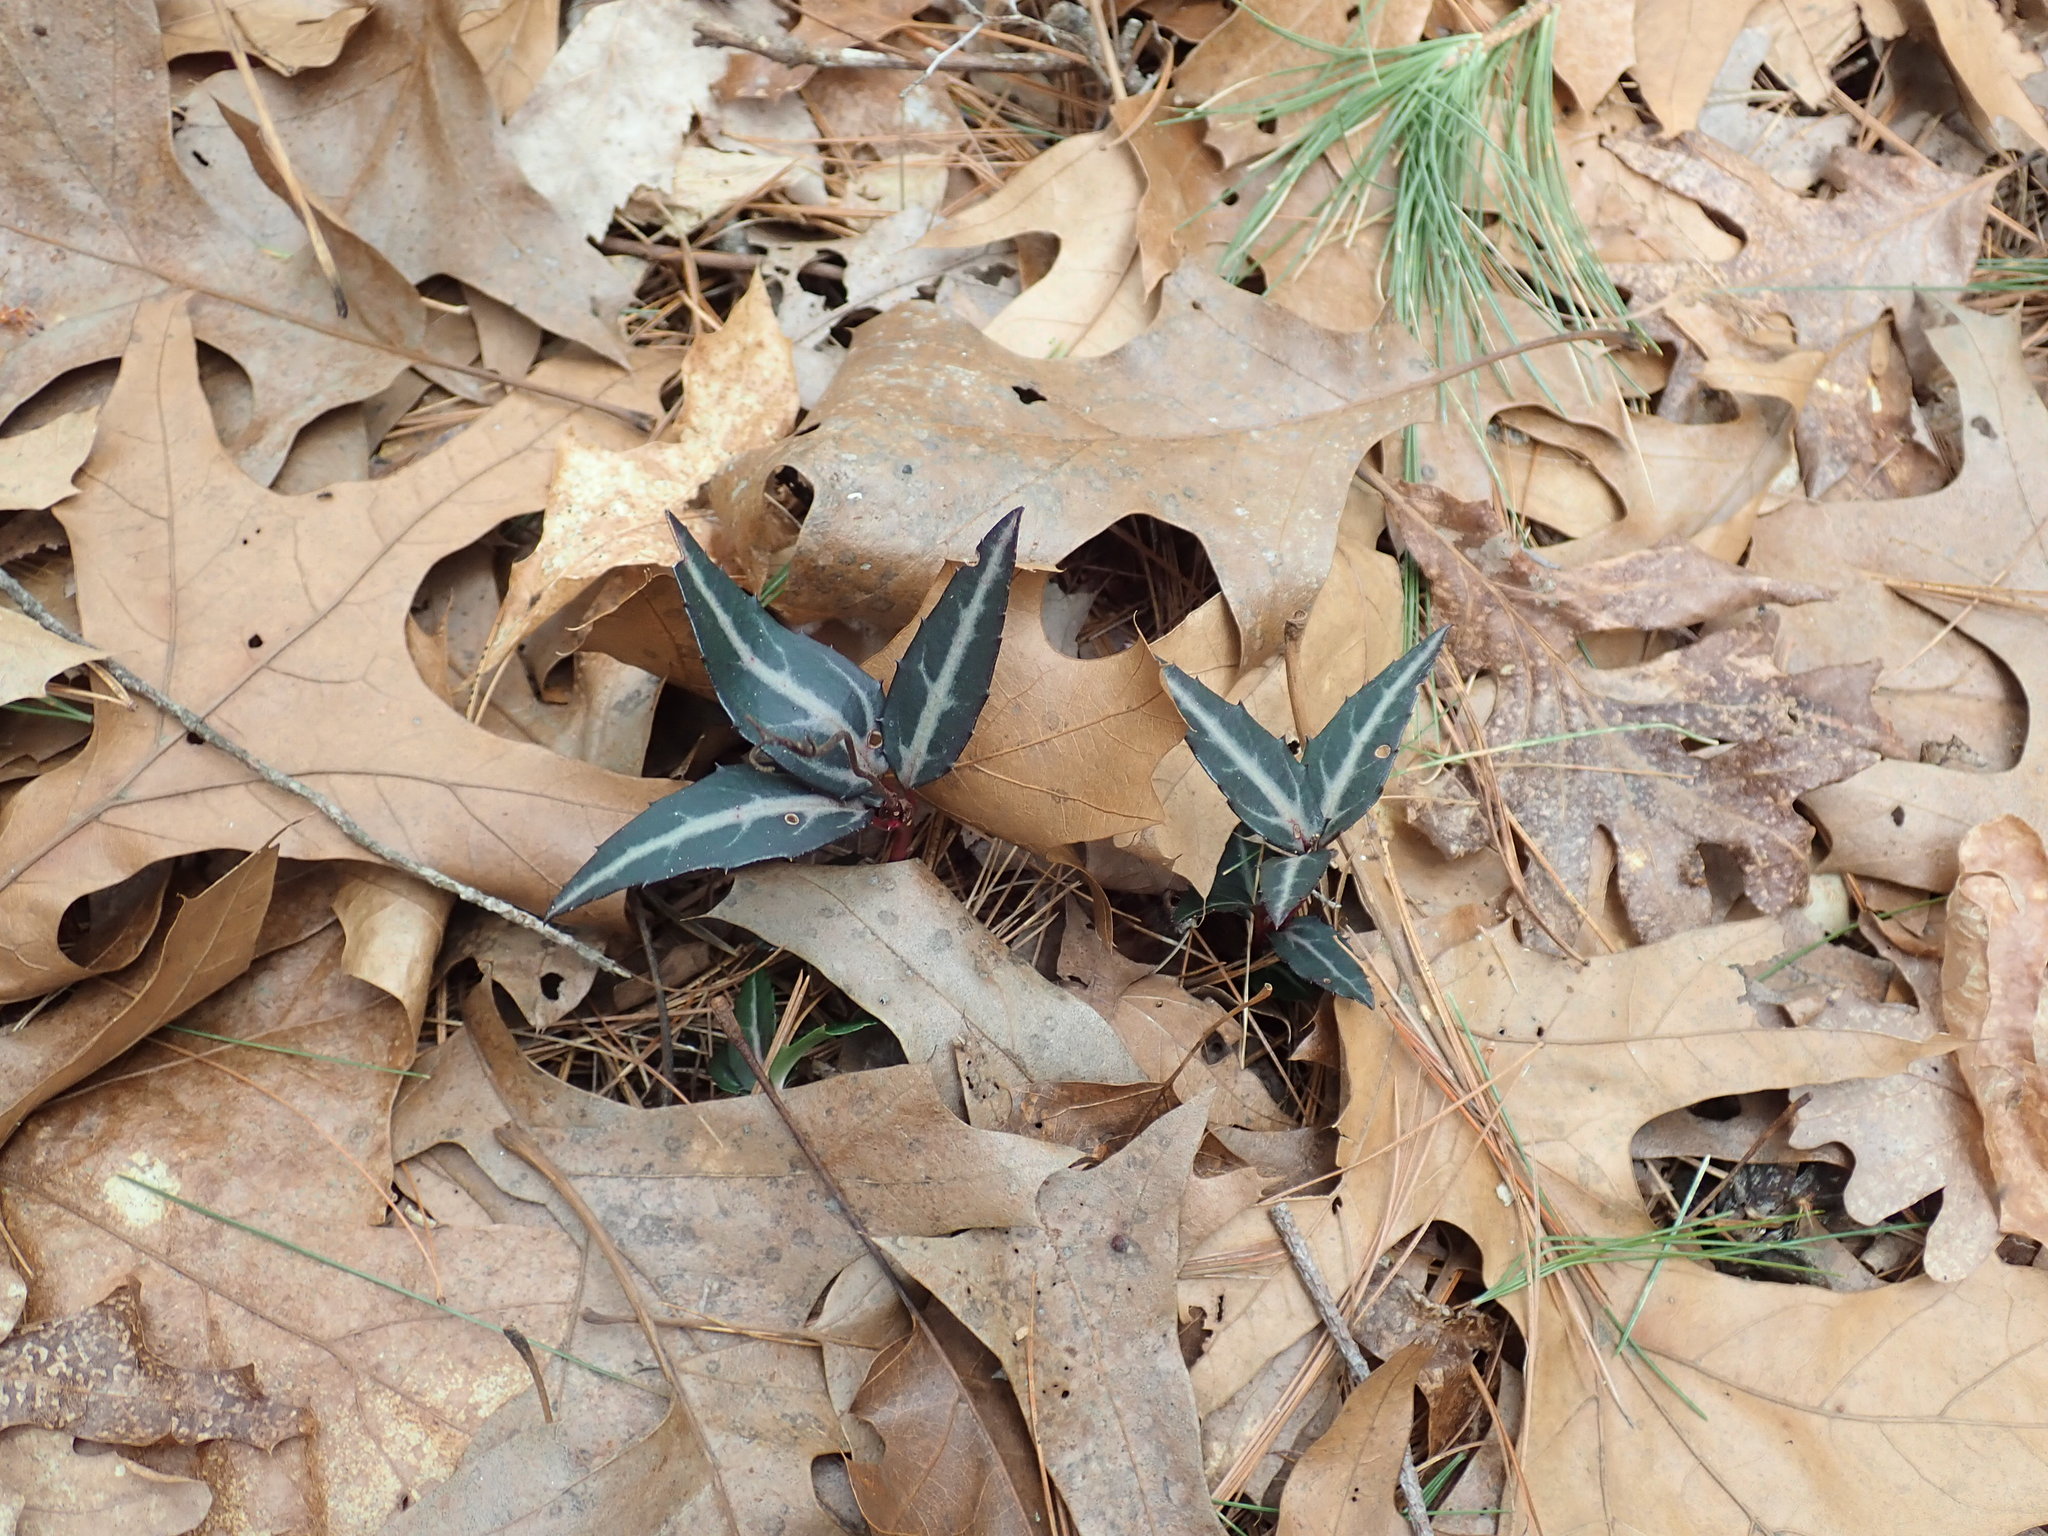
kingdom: Plantae
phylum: Tracheophyta
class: Magnoliopsida
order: Ericales
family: Ericaceae
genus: Chimaphila
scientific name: Chimaphila maculata
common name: Spotted pipsissewa
